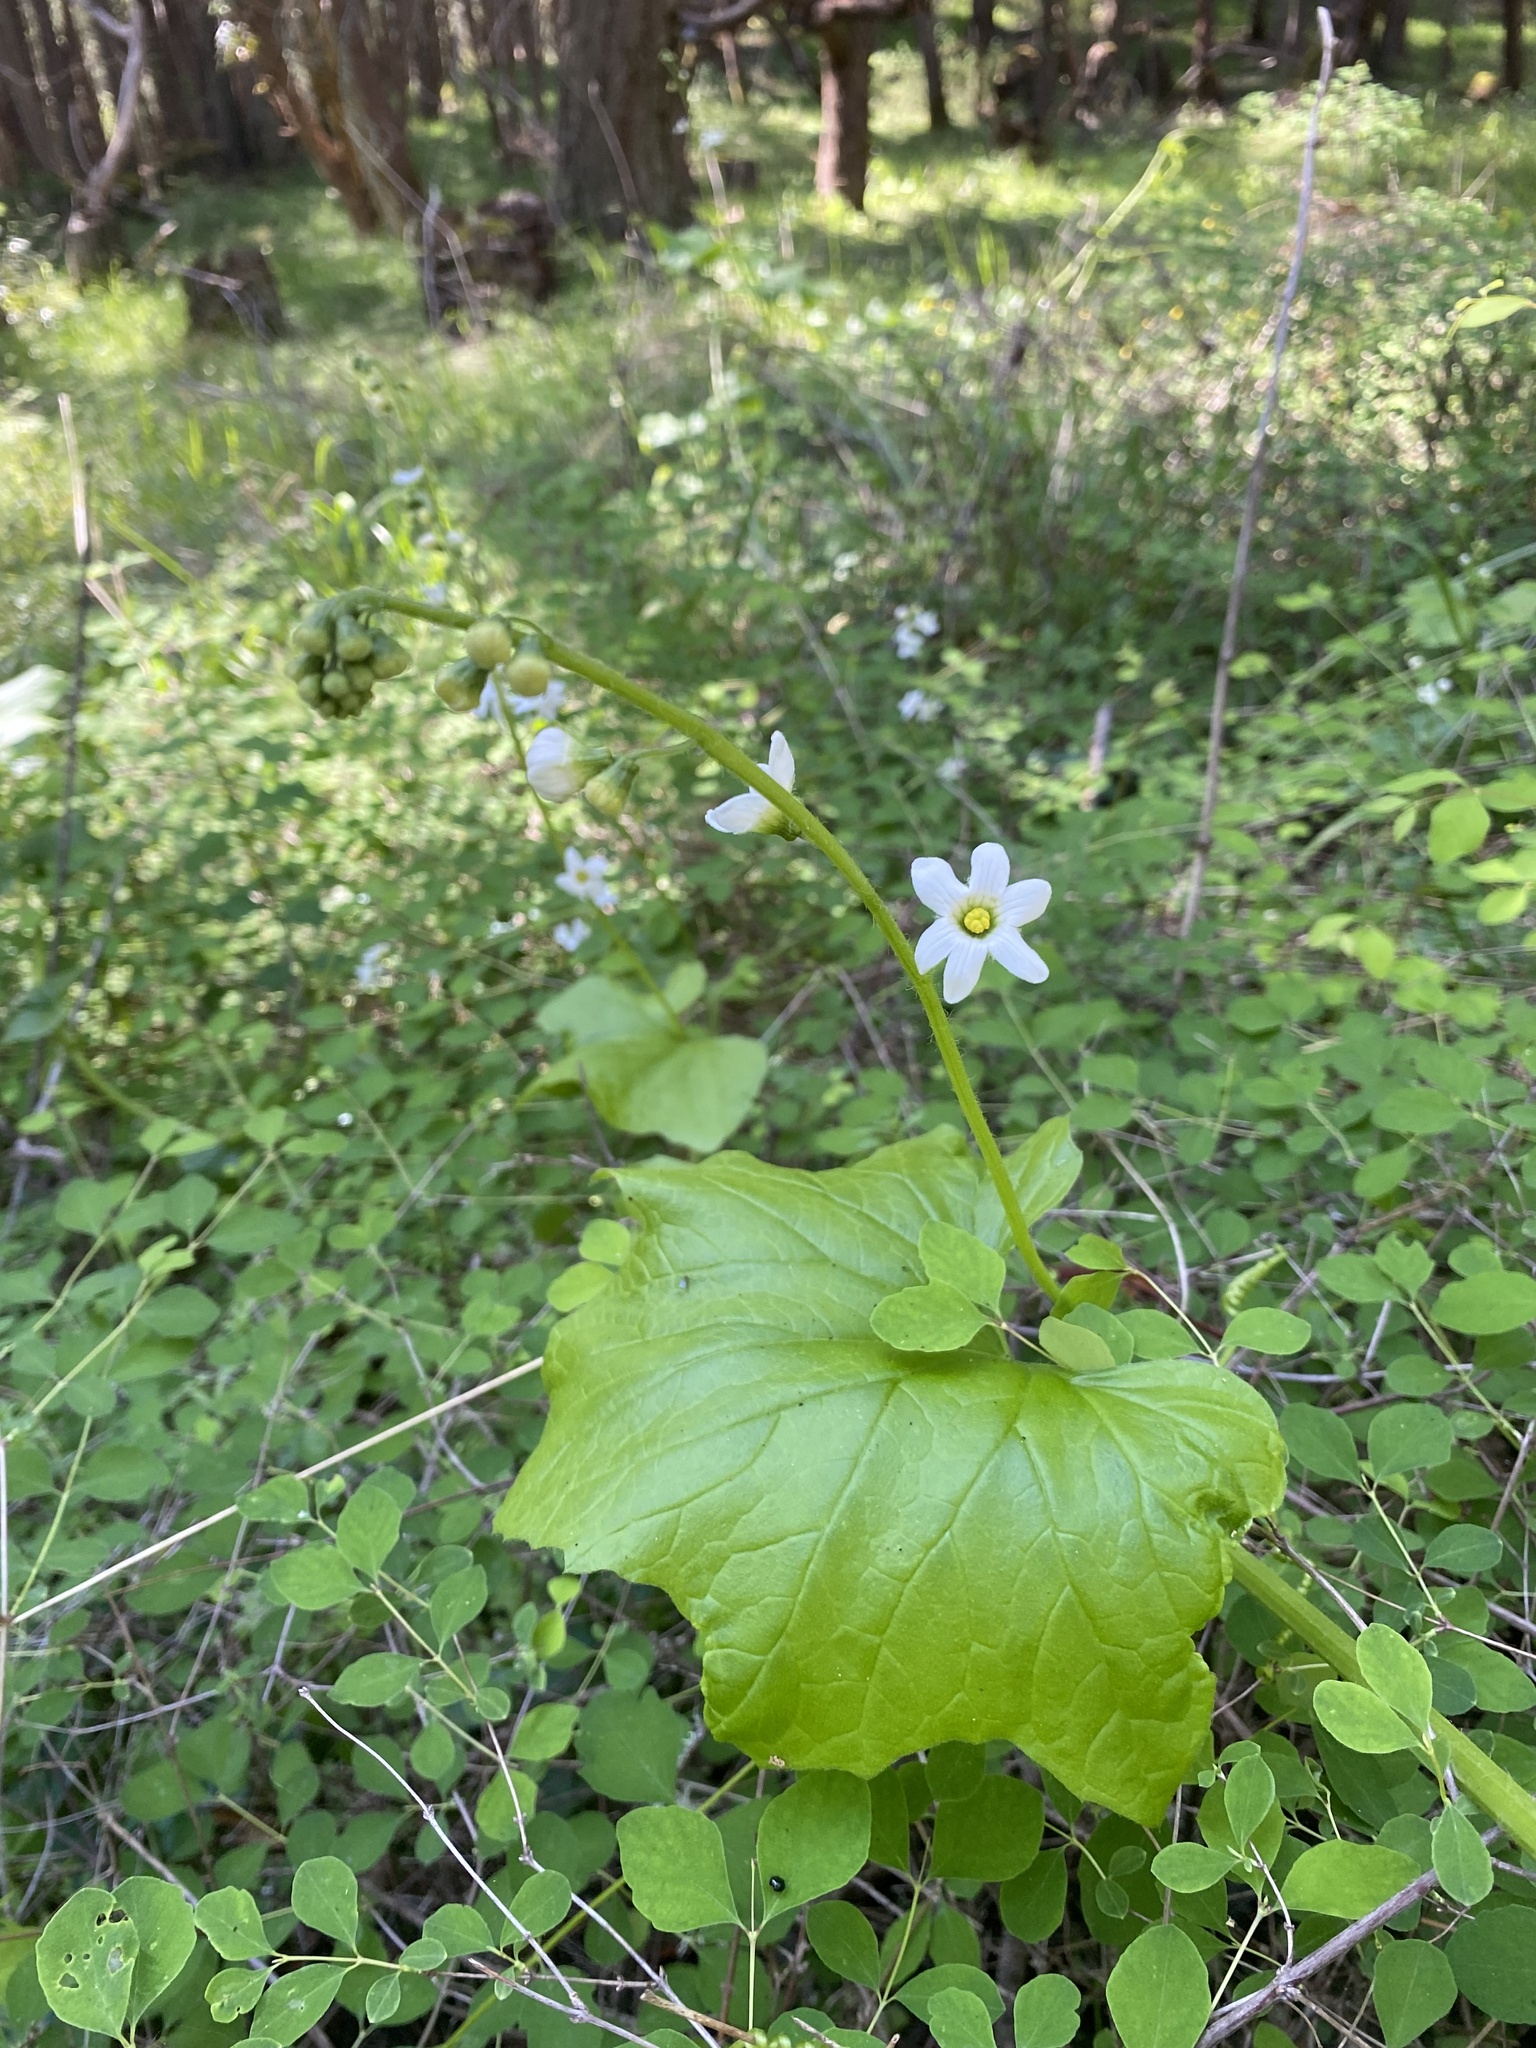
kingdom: Plantae
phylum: Tracheophyta
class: Magnoliopsida
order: Cucurbitales
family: Cucurbitaceae
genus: Marah
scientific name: Marah oregana
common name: Coastal manroot
